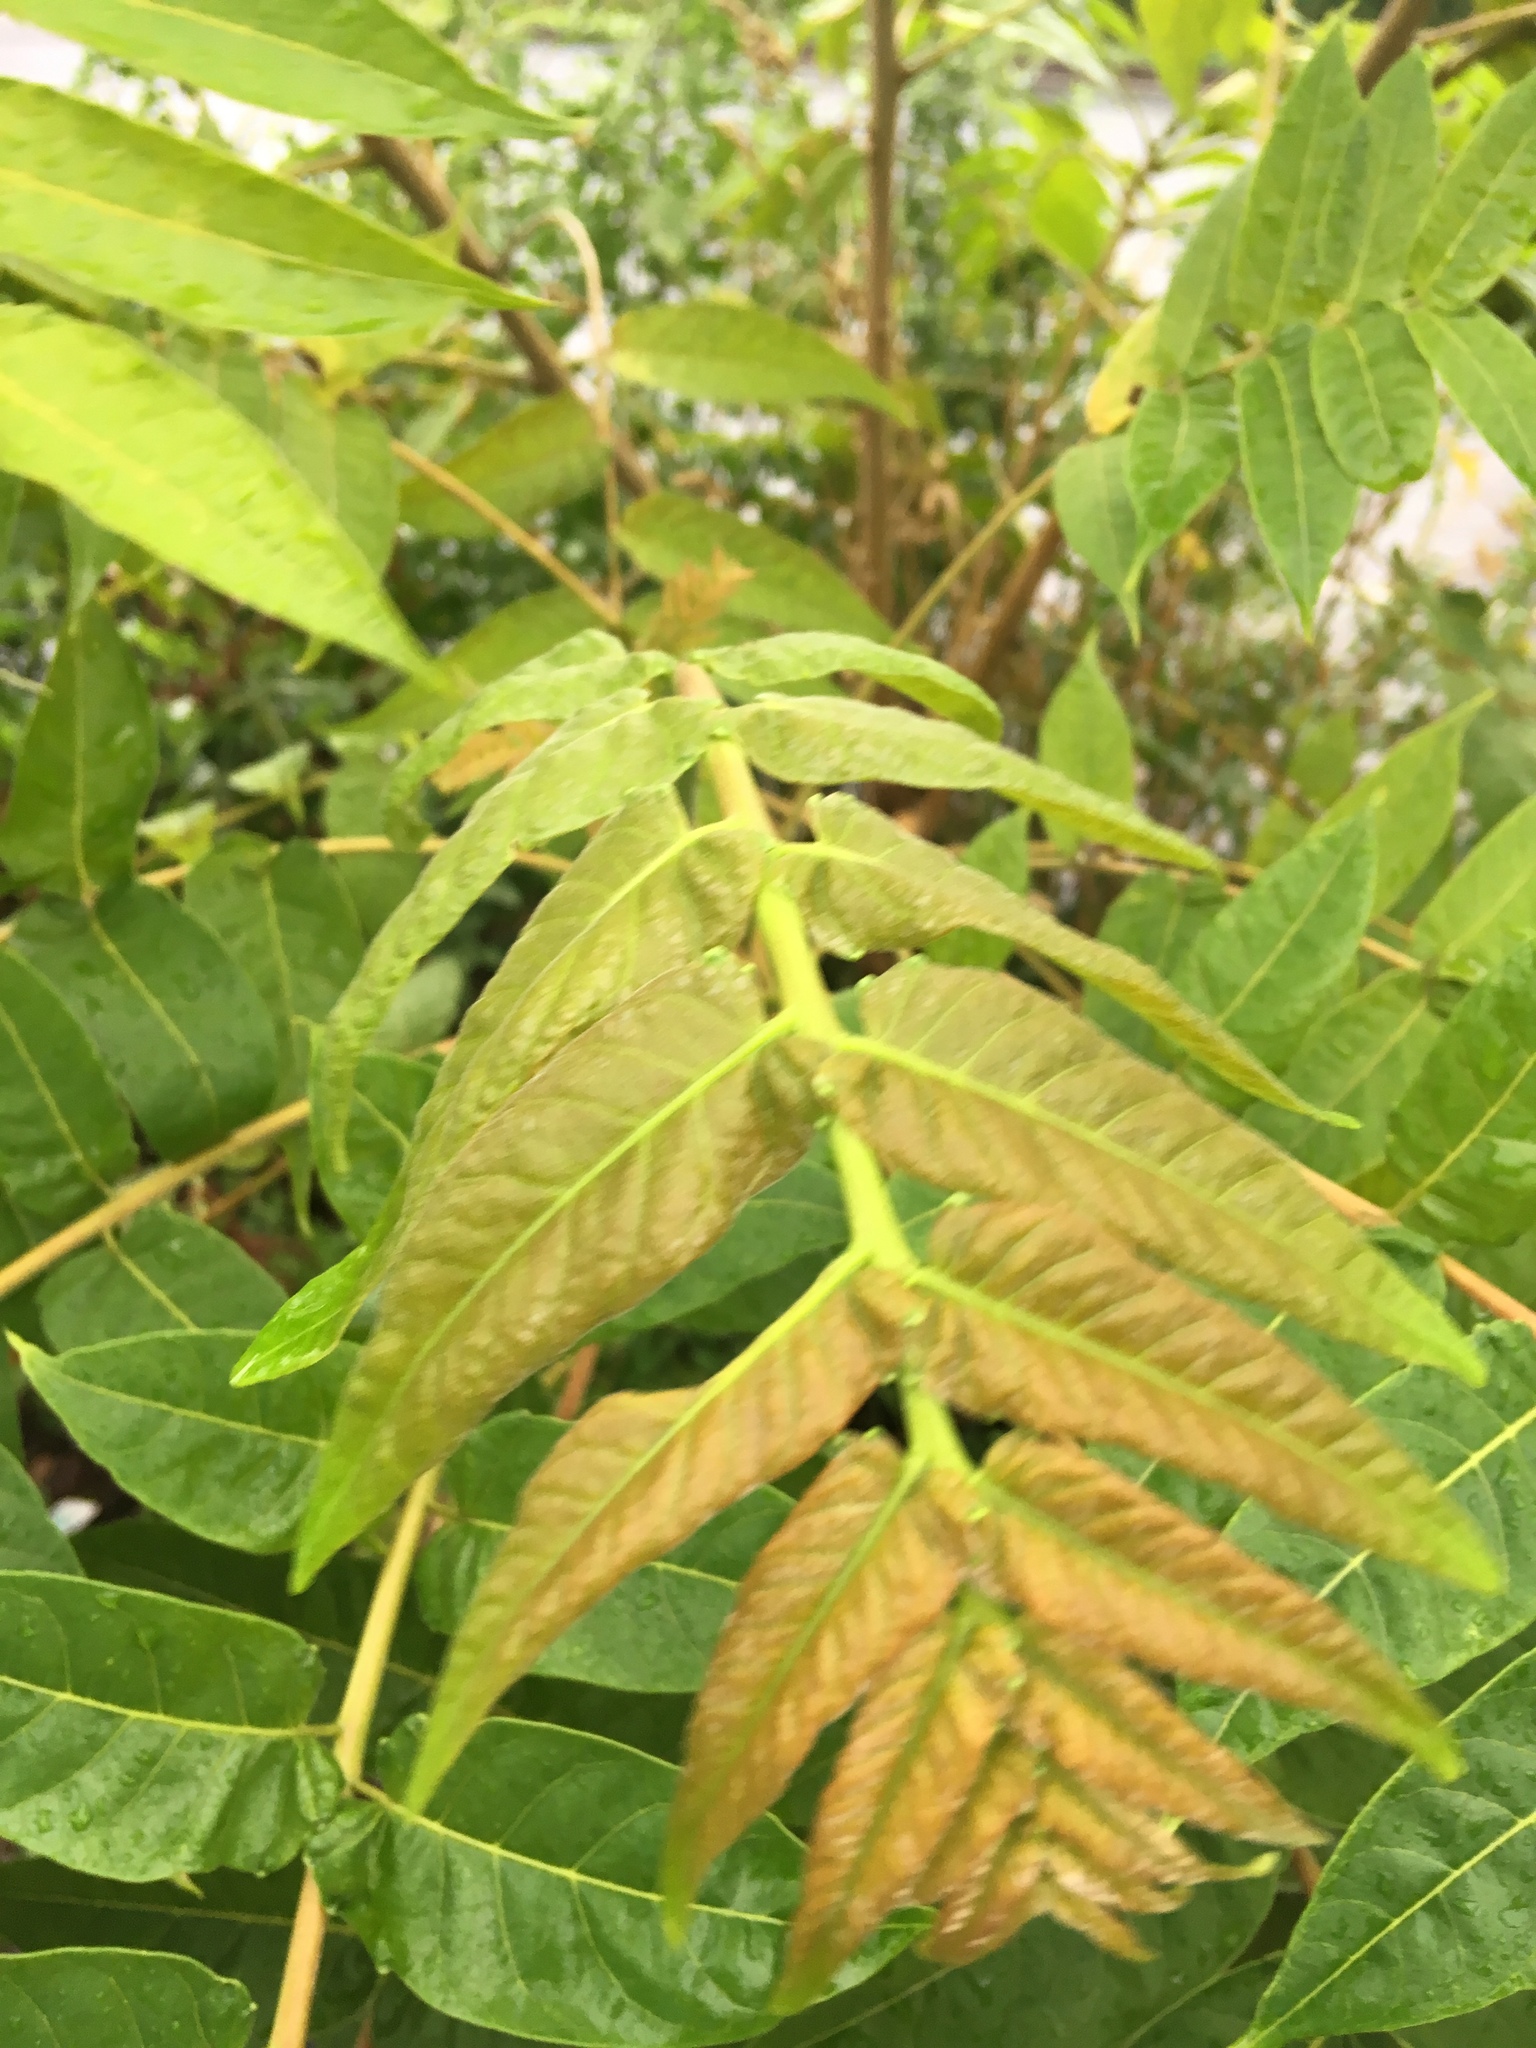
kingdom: Plantae
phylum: Tracheophyta
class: Magnoliopsida
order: Sapindales
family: Simaroubaceae
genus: Ailanthus
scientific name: Ailanthus altissima
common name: Tree-of-heaven
